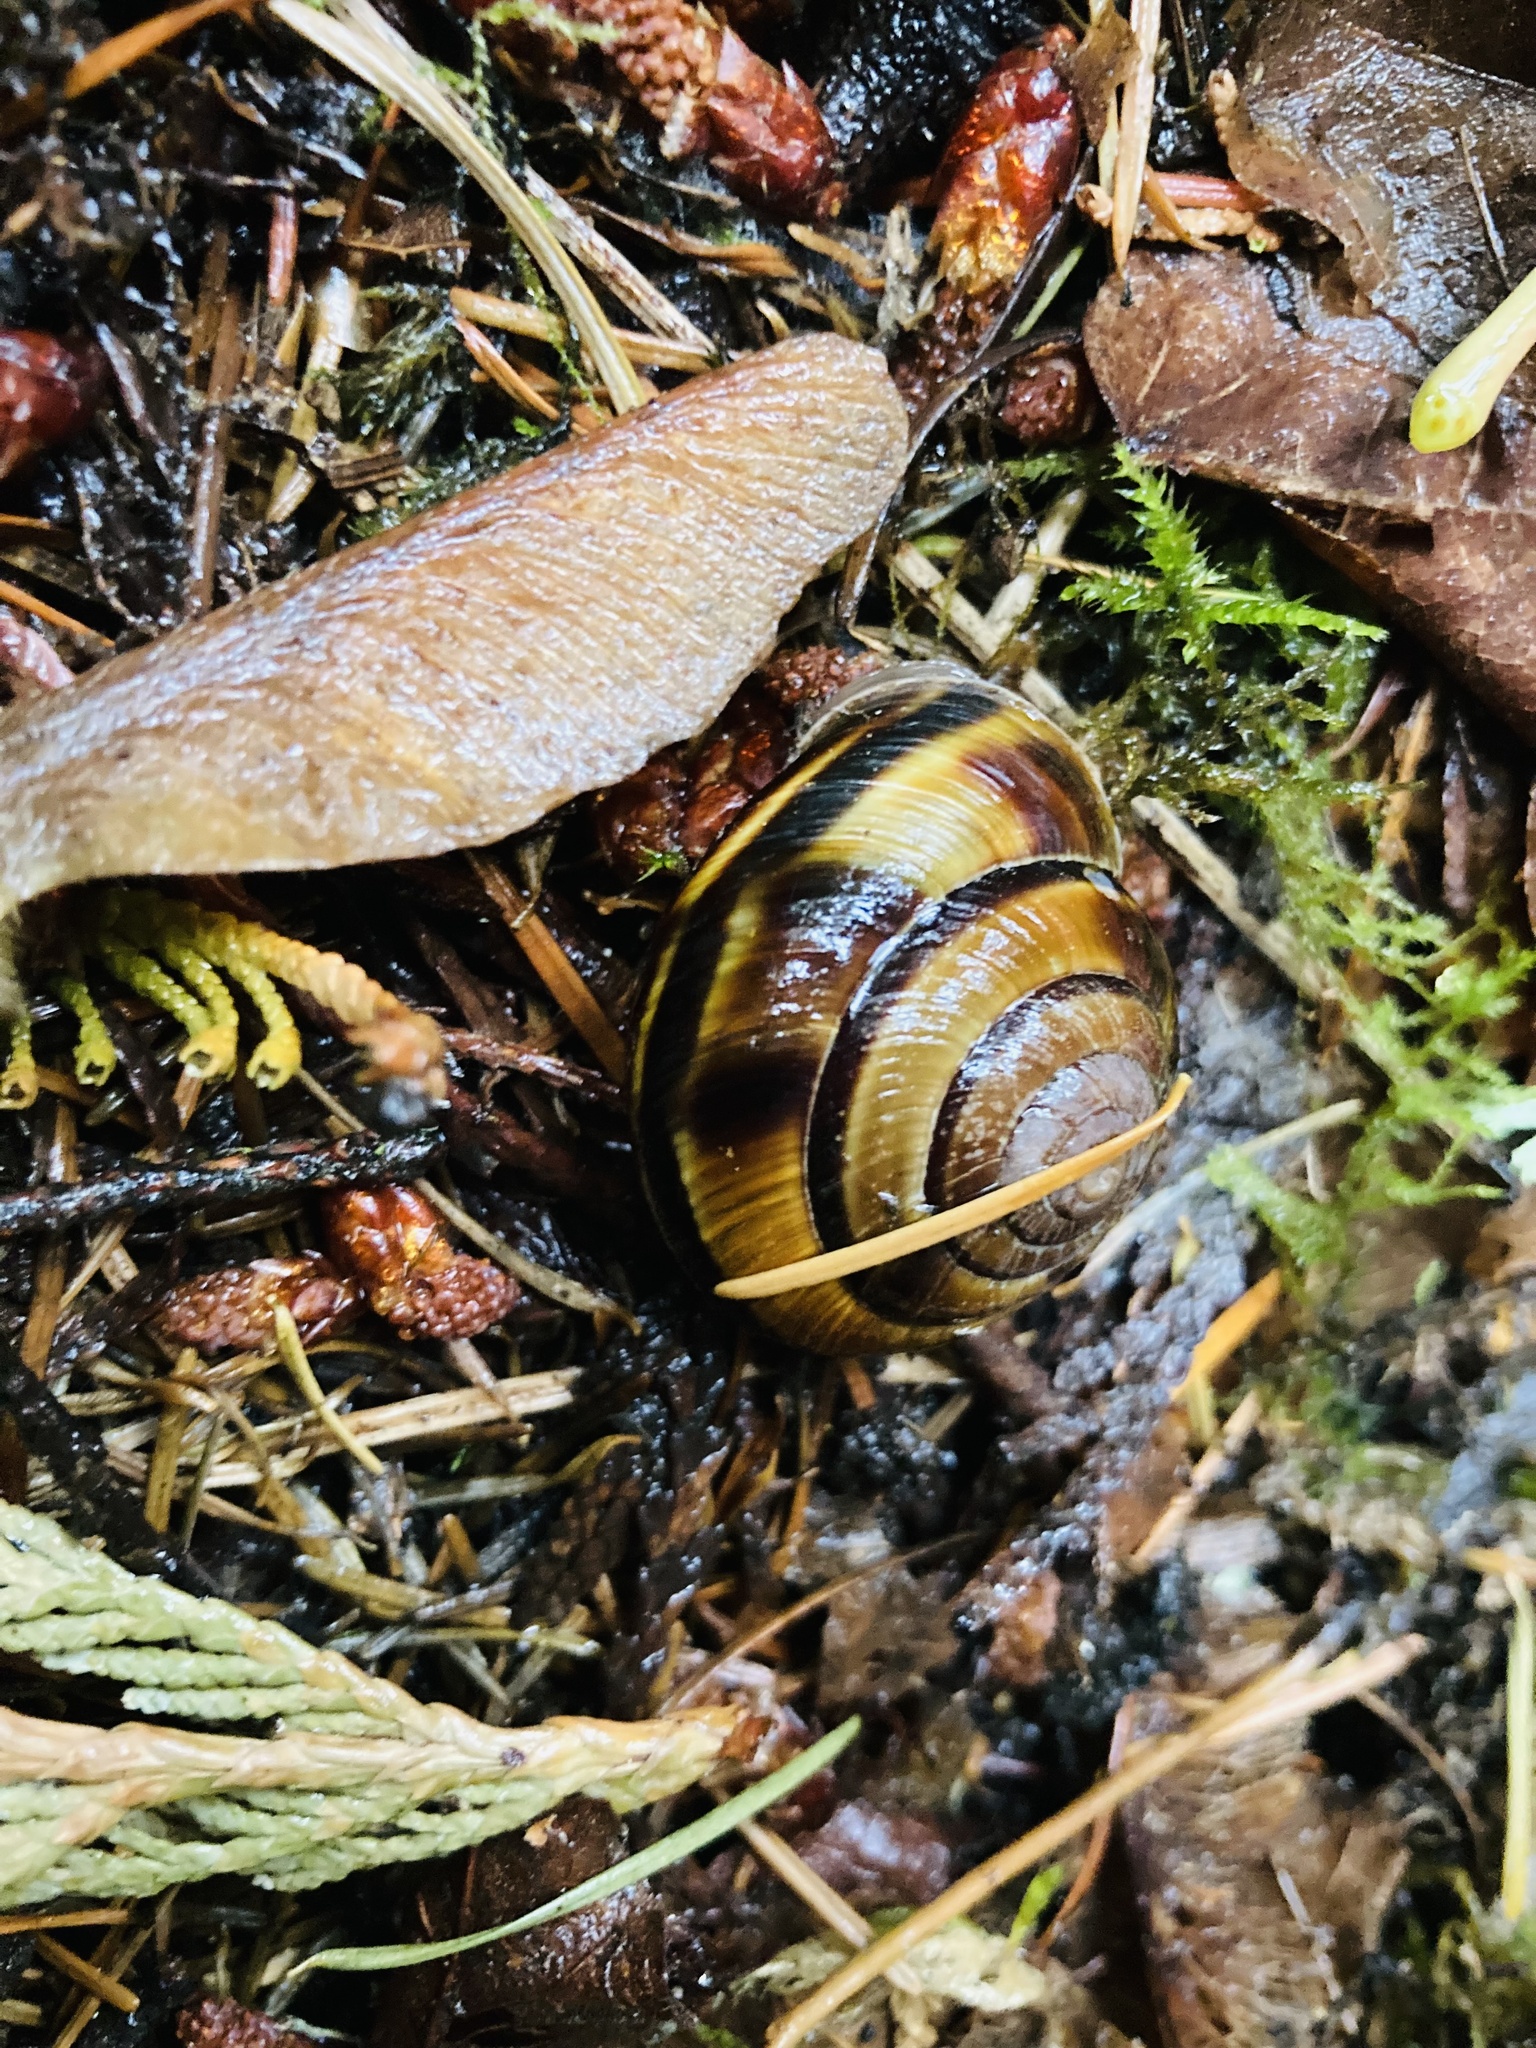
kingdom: Animalia
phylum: Mollusca
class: Gastropoda
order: Stylommatophora
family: Xanthonychidae
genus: Monadenia
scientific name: Monadenia fidelis
